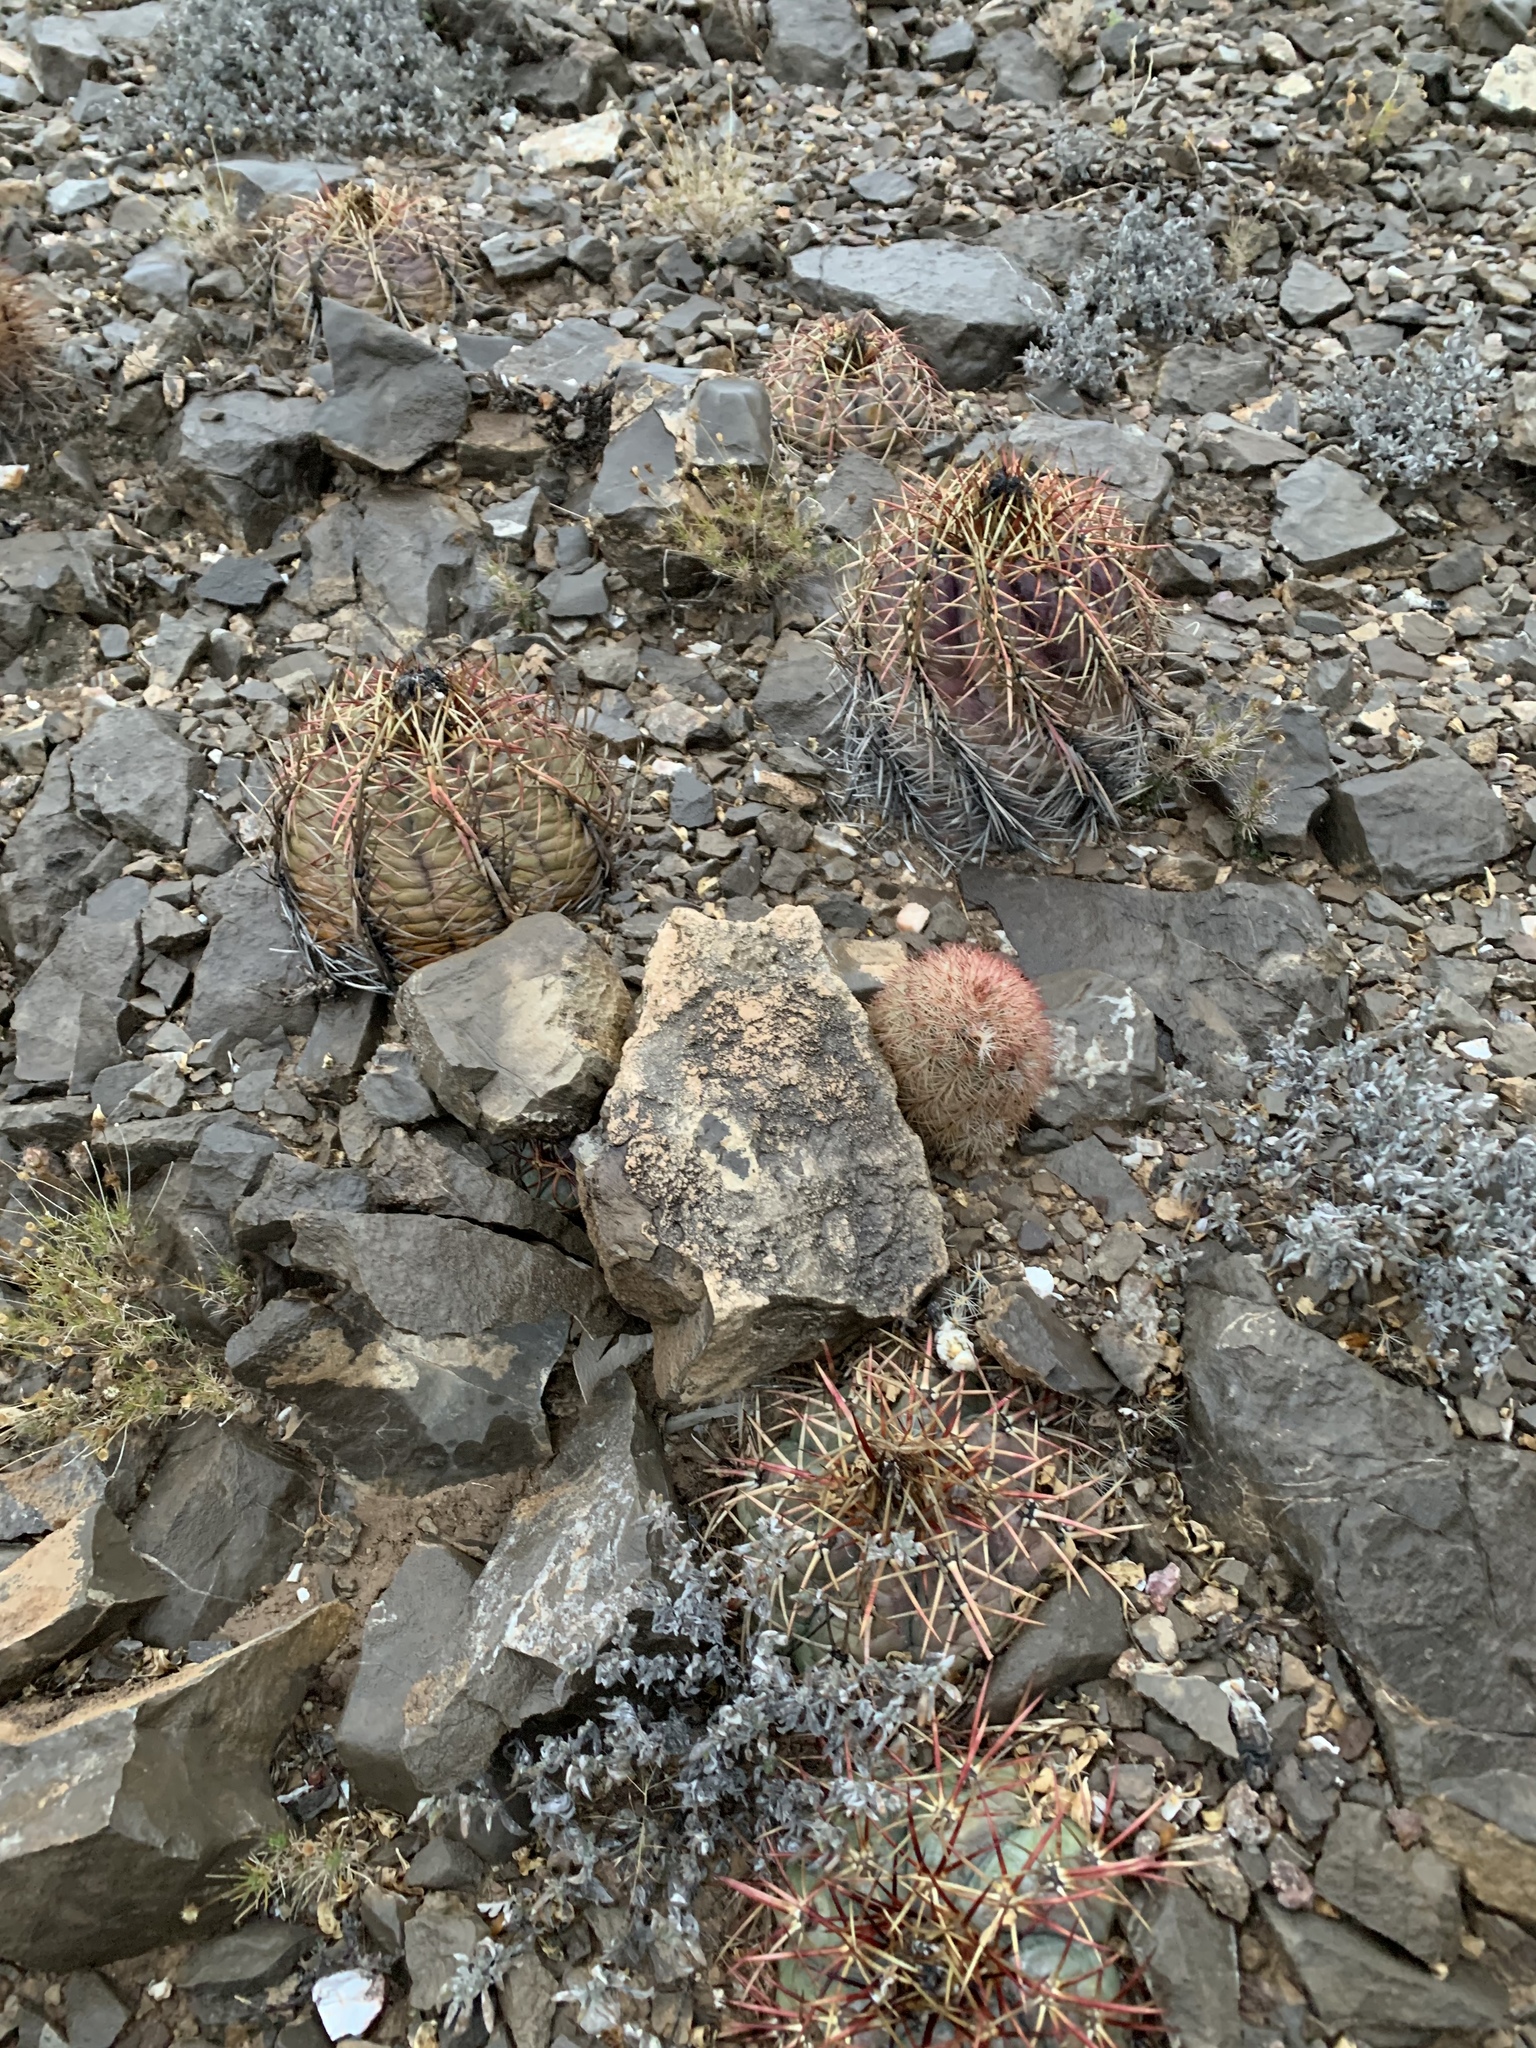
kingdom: Plantae
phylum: Tracheophyta
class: Magnoliopsida
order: Caryophyllales
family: Cactaceae
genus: Echinocactus
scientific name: Echinocactus horizonthalonius
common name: Devilshead
